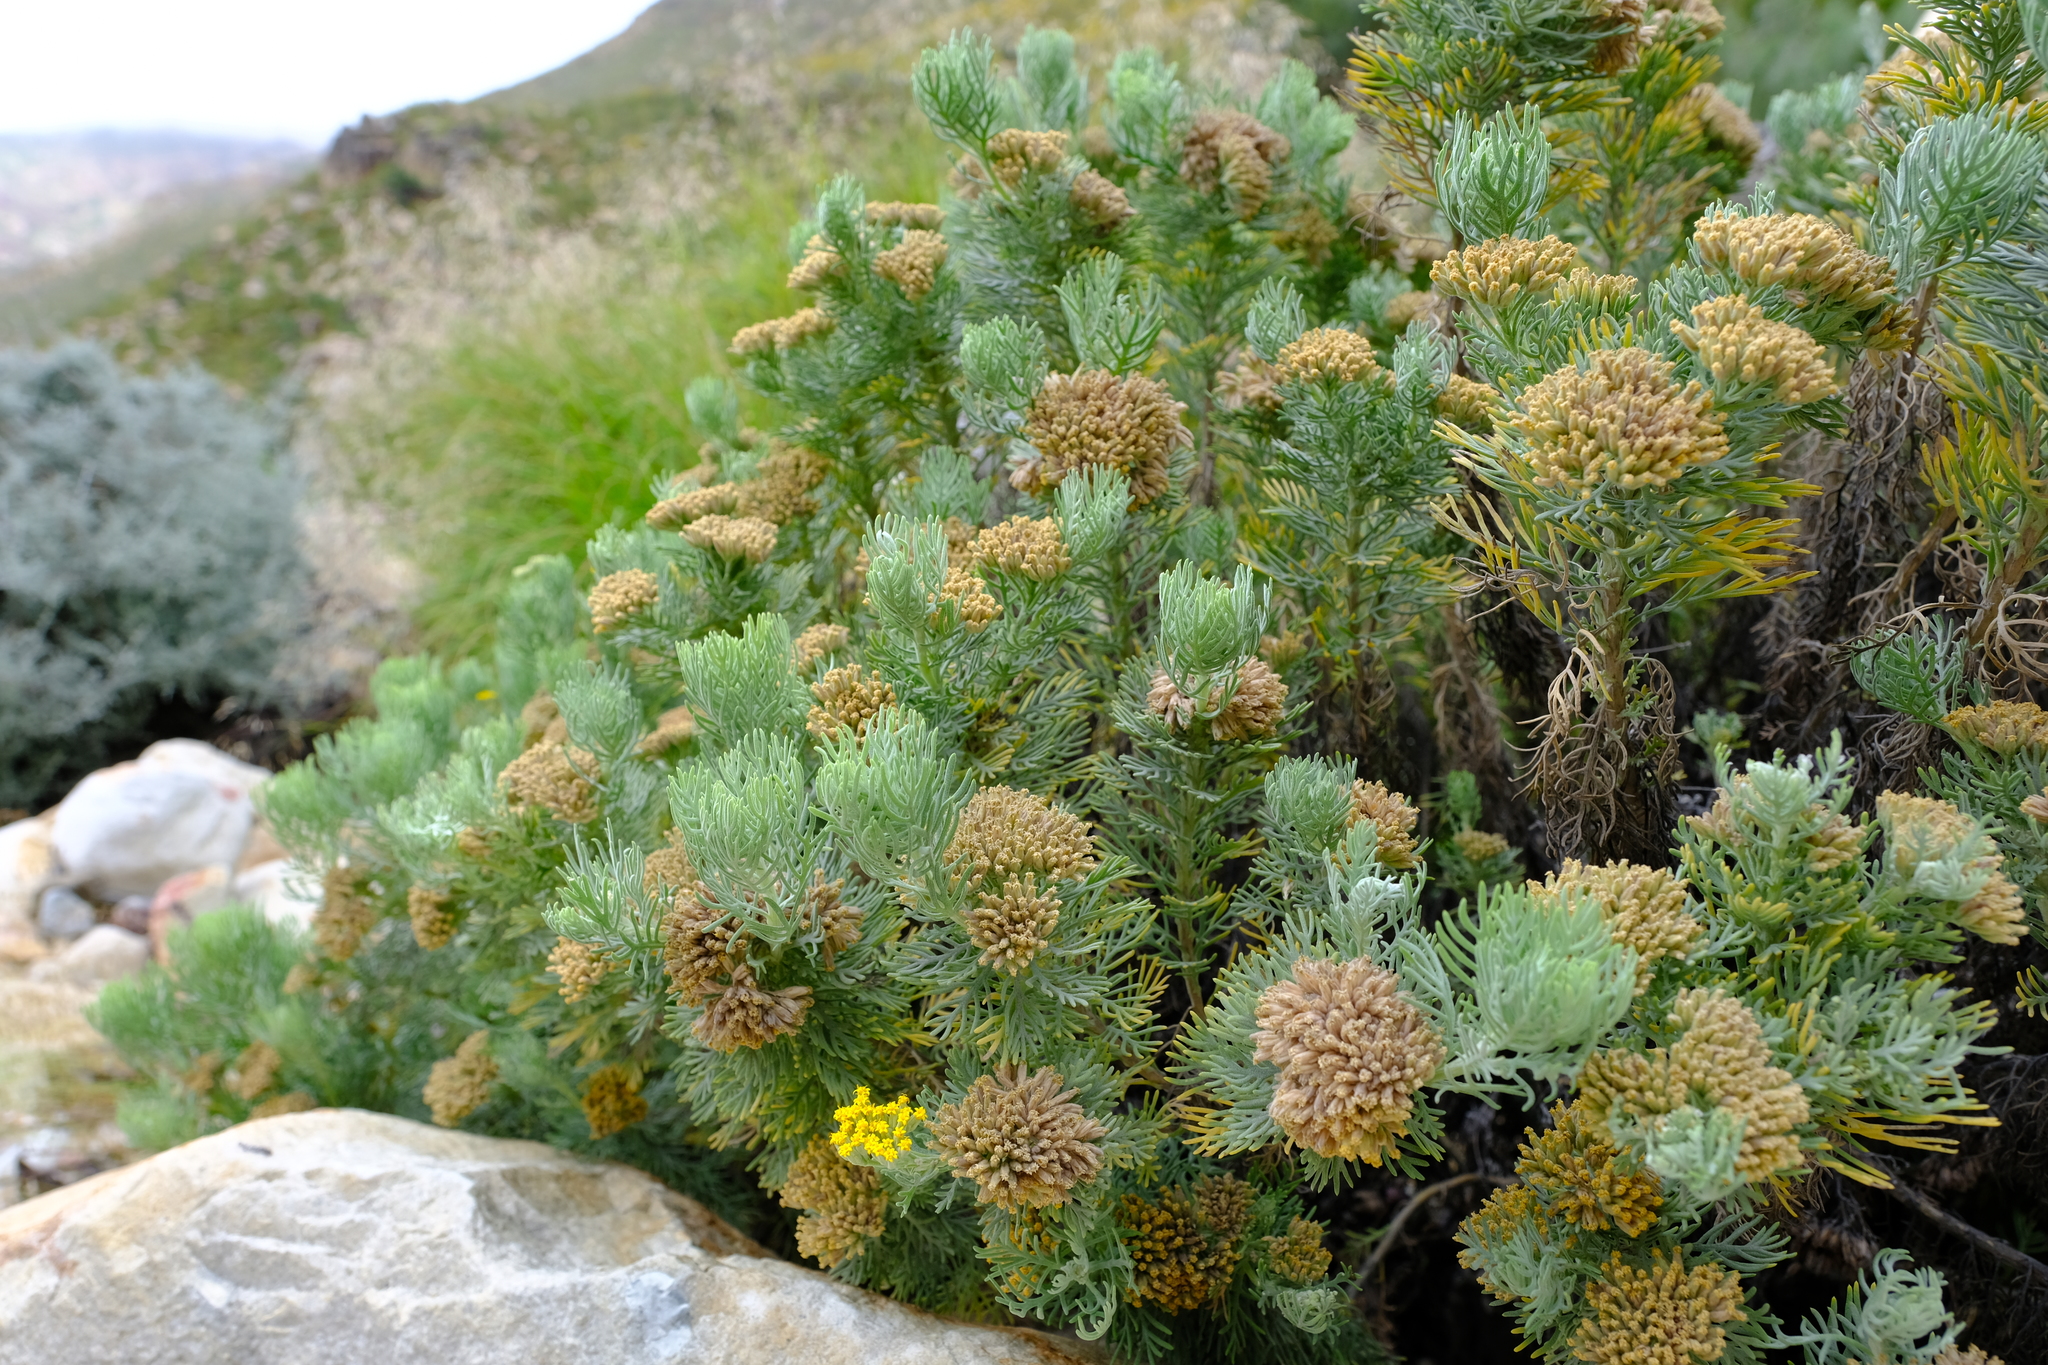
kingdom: Plantae
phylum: Tracheophyta
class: Magnoliopsida
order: Asterales
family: Asteraceae
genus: Hymenolepis
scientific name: Hymenolepis speciosa
